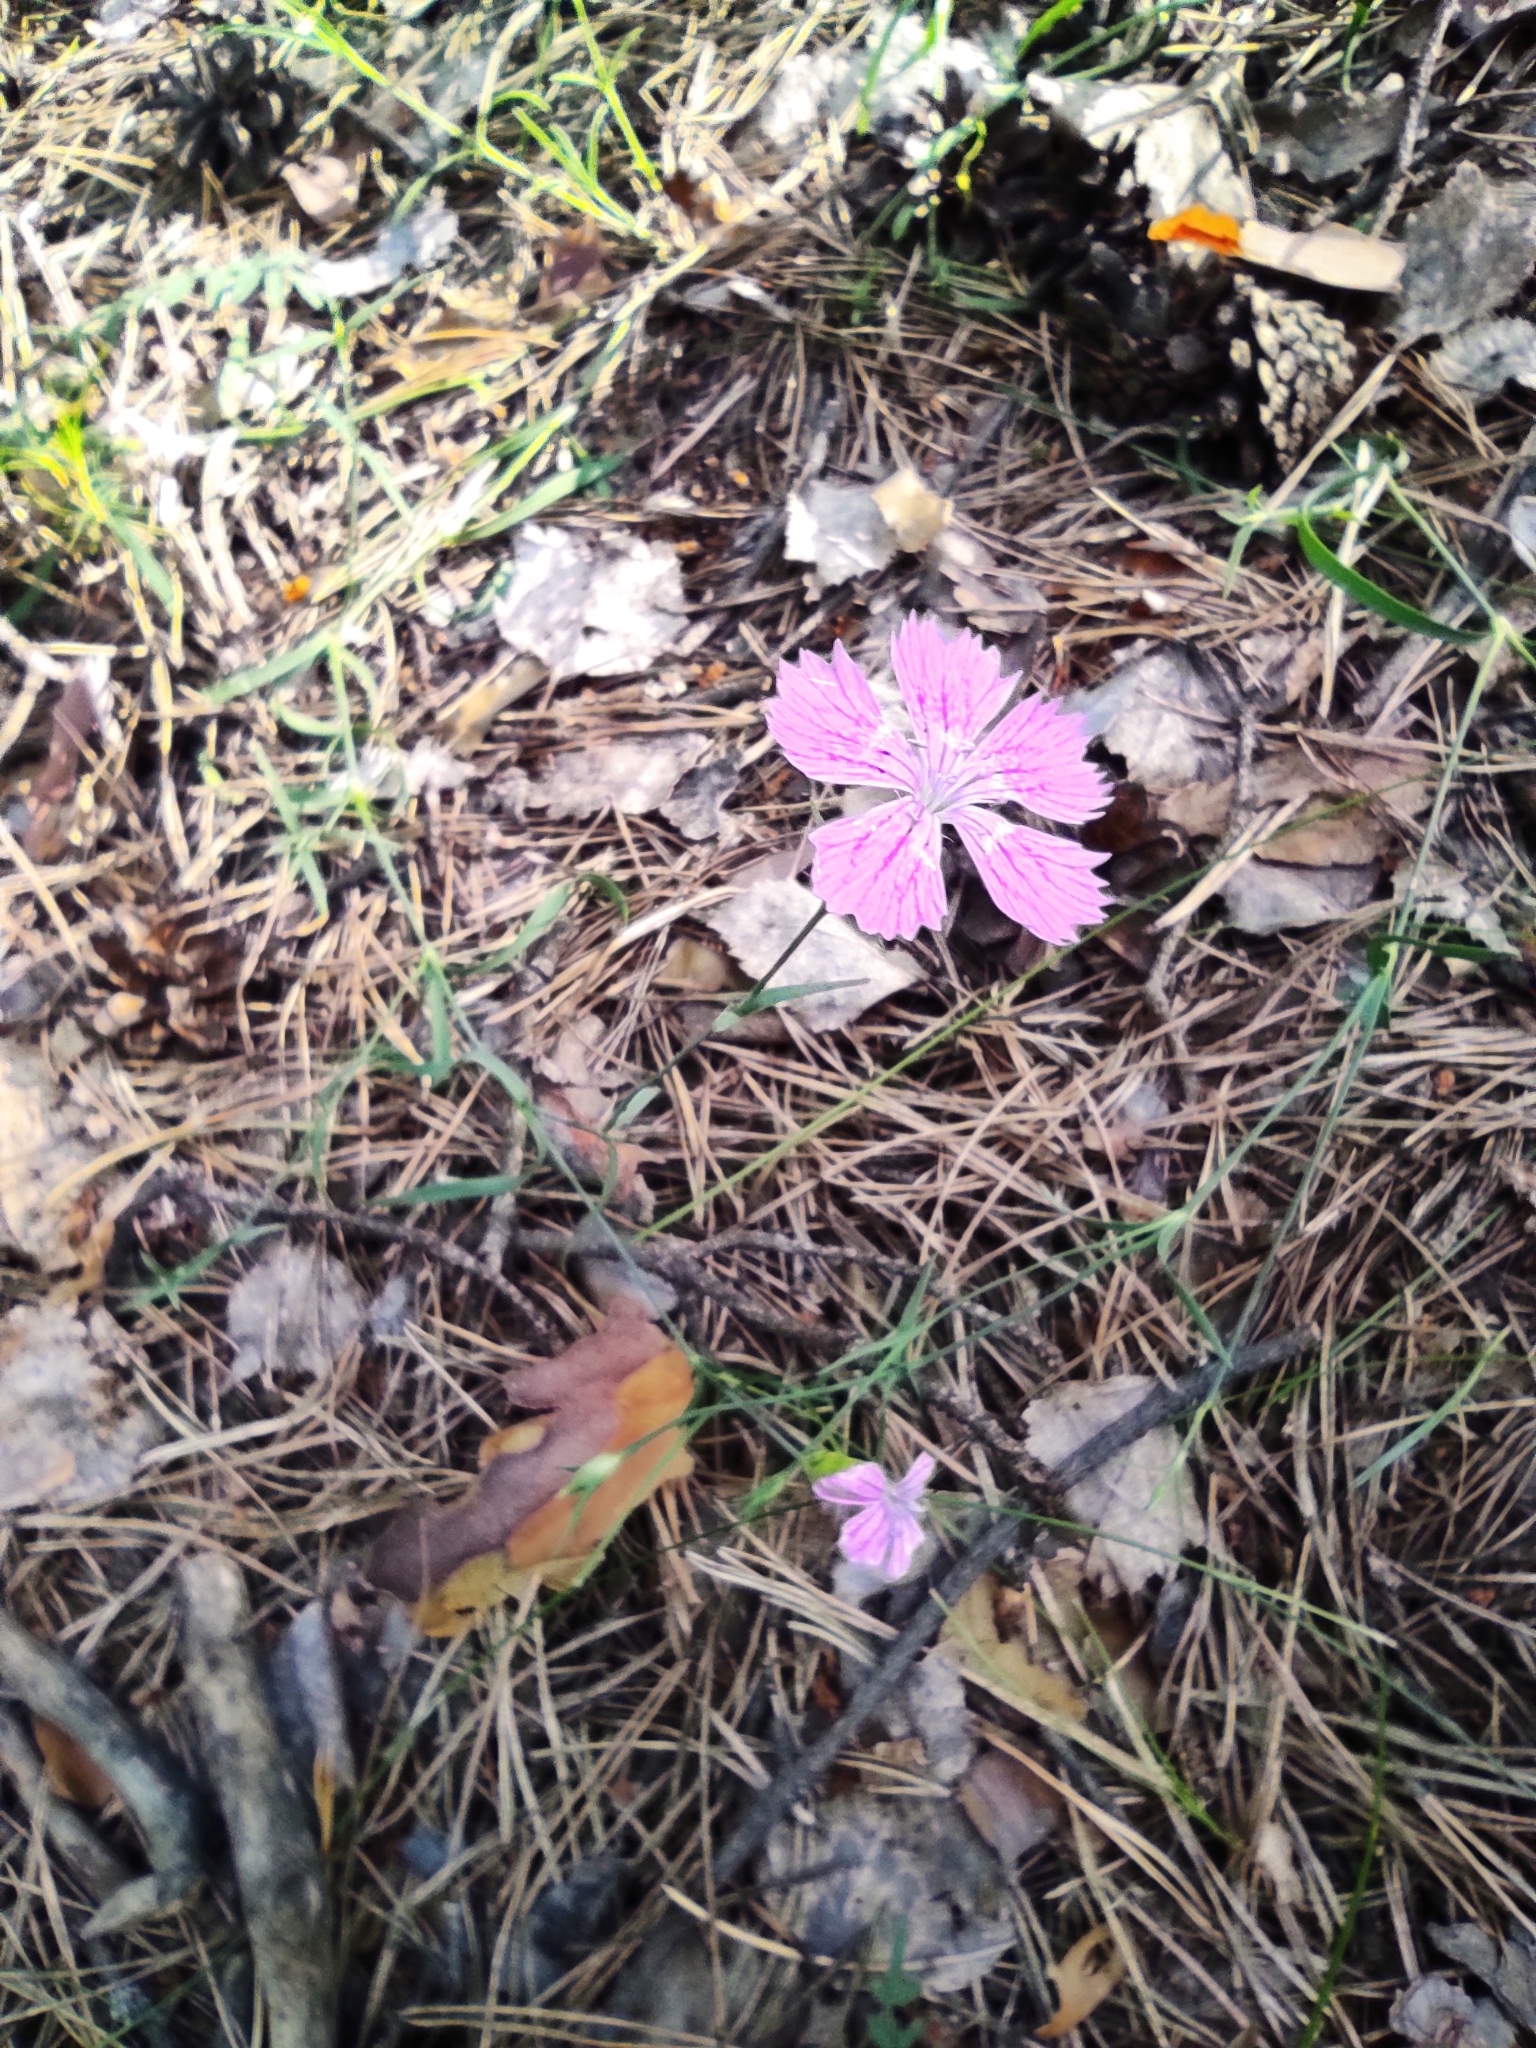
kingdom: Plantae
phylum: Tracheophyta
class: Magnoliopsida
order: Caryophyllales
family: Caryophyllaceae
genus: Dianthus
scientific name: Dianthus chinensis
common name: Rainbow pink
